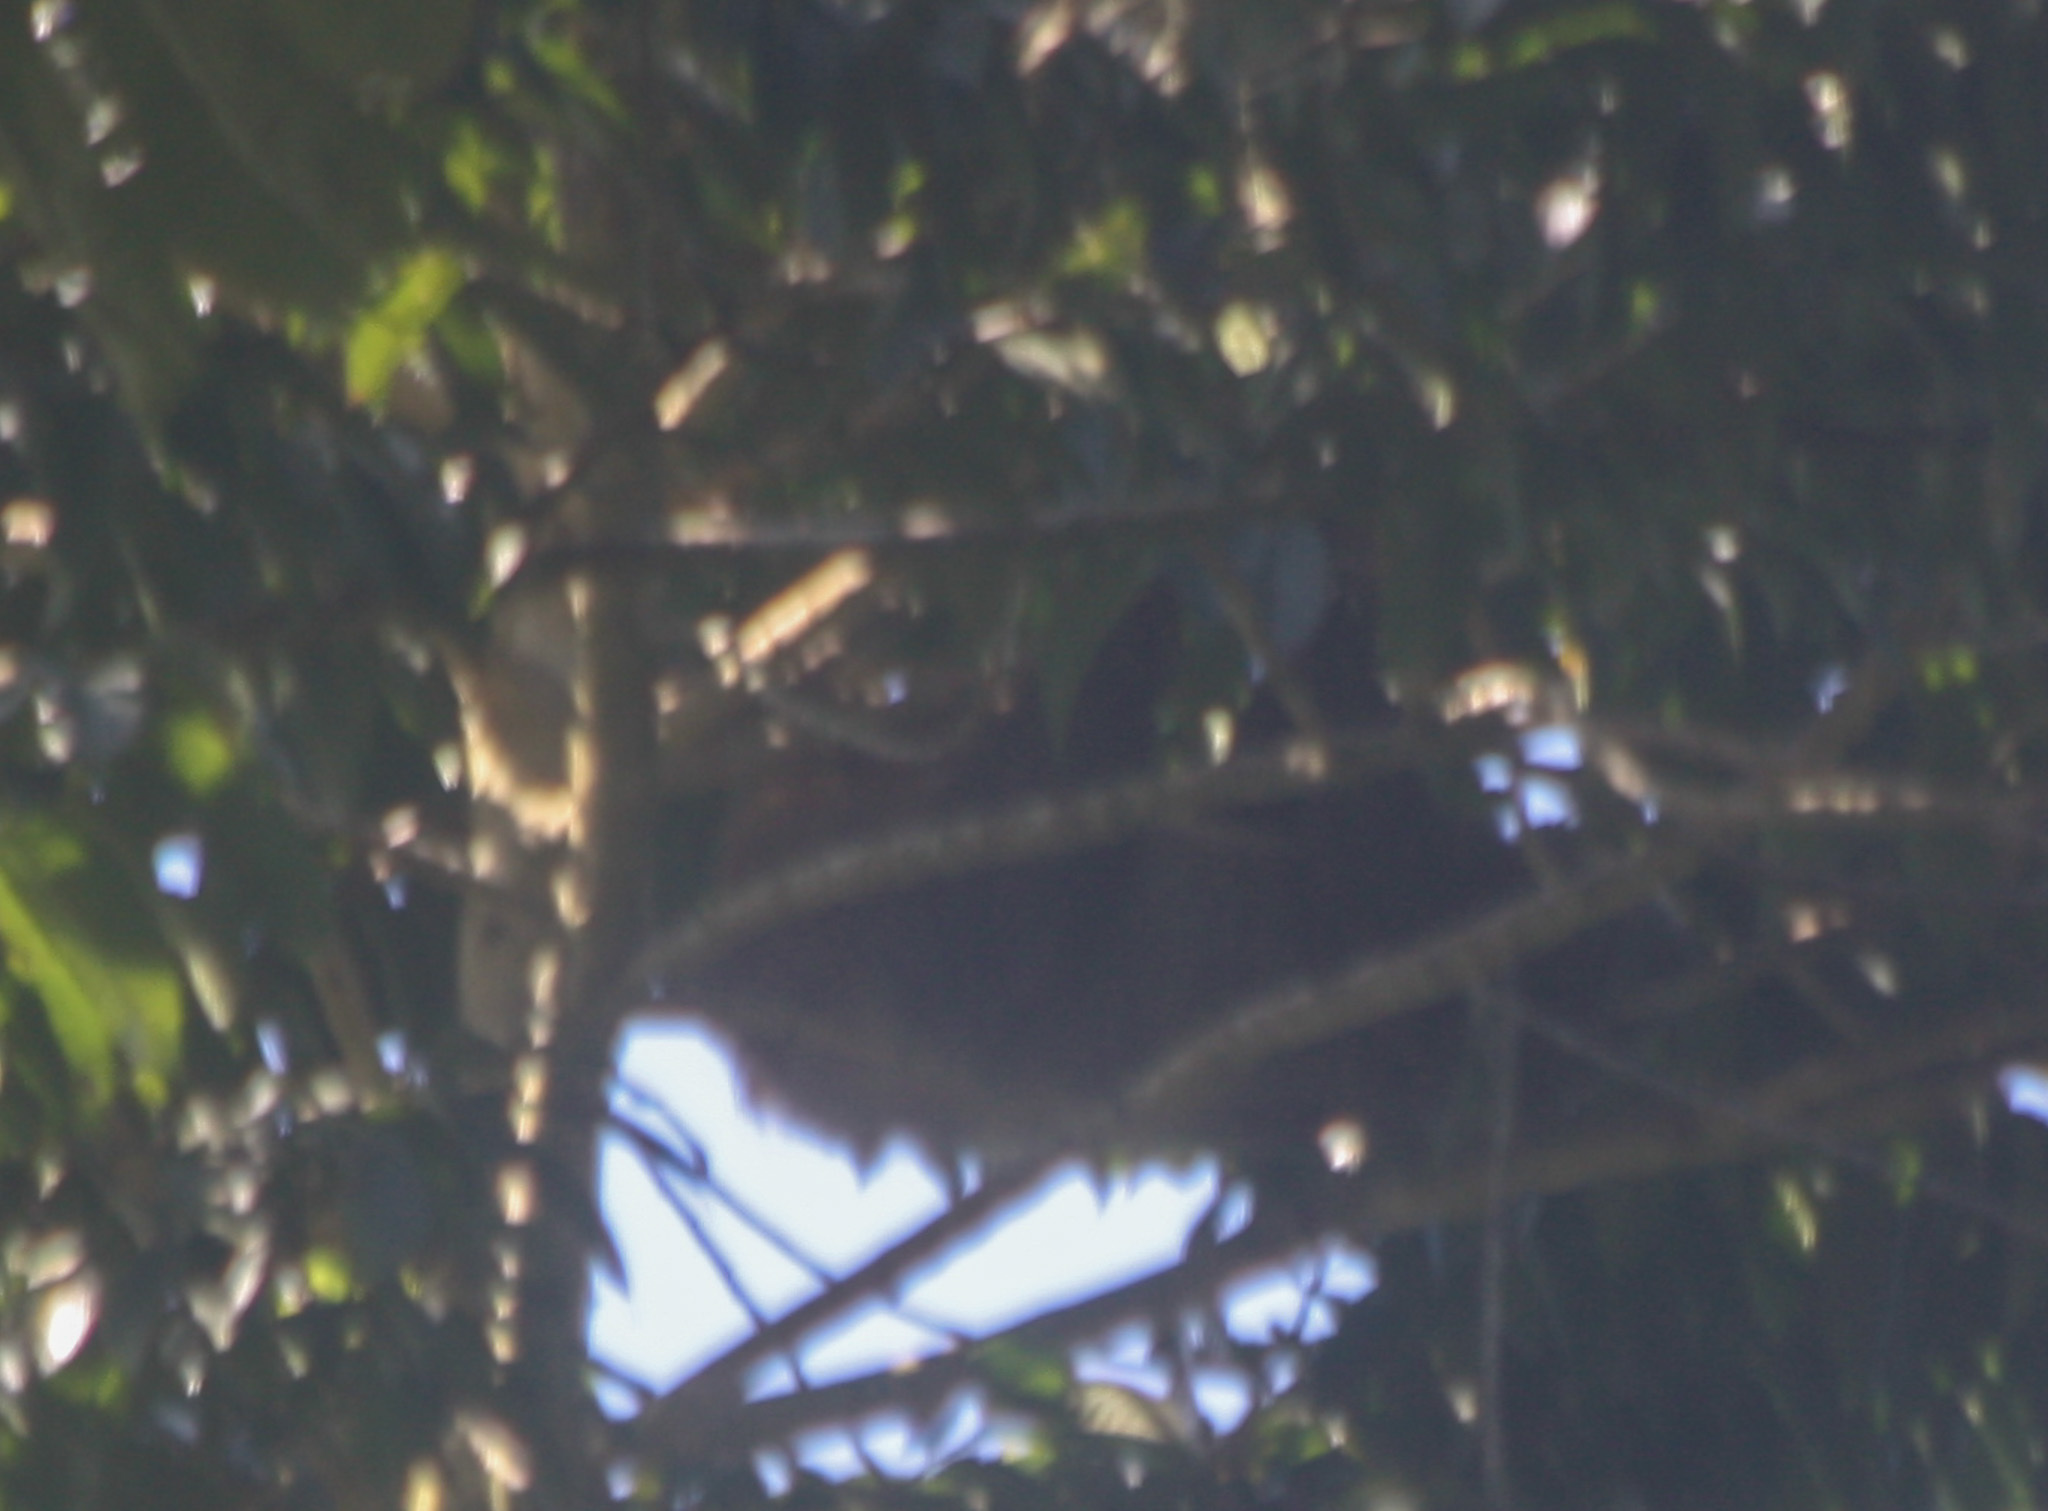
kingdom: Animalia
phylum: Chordata
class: Mammalia
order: Pilosa
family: Megalonychidae
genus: Choloepus
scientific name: Choloepus hoffmanni
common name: Hoffmann's two-toed sloth
